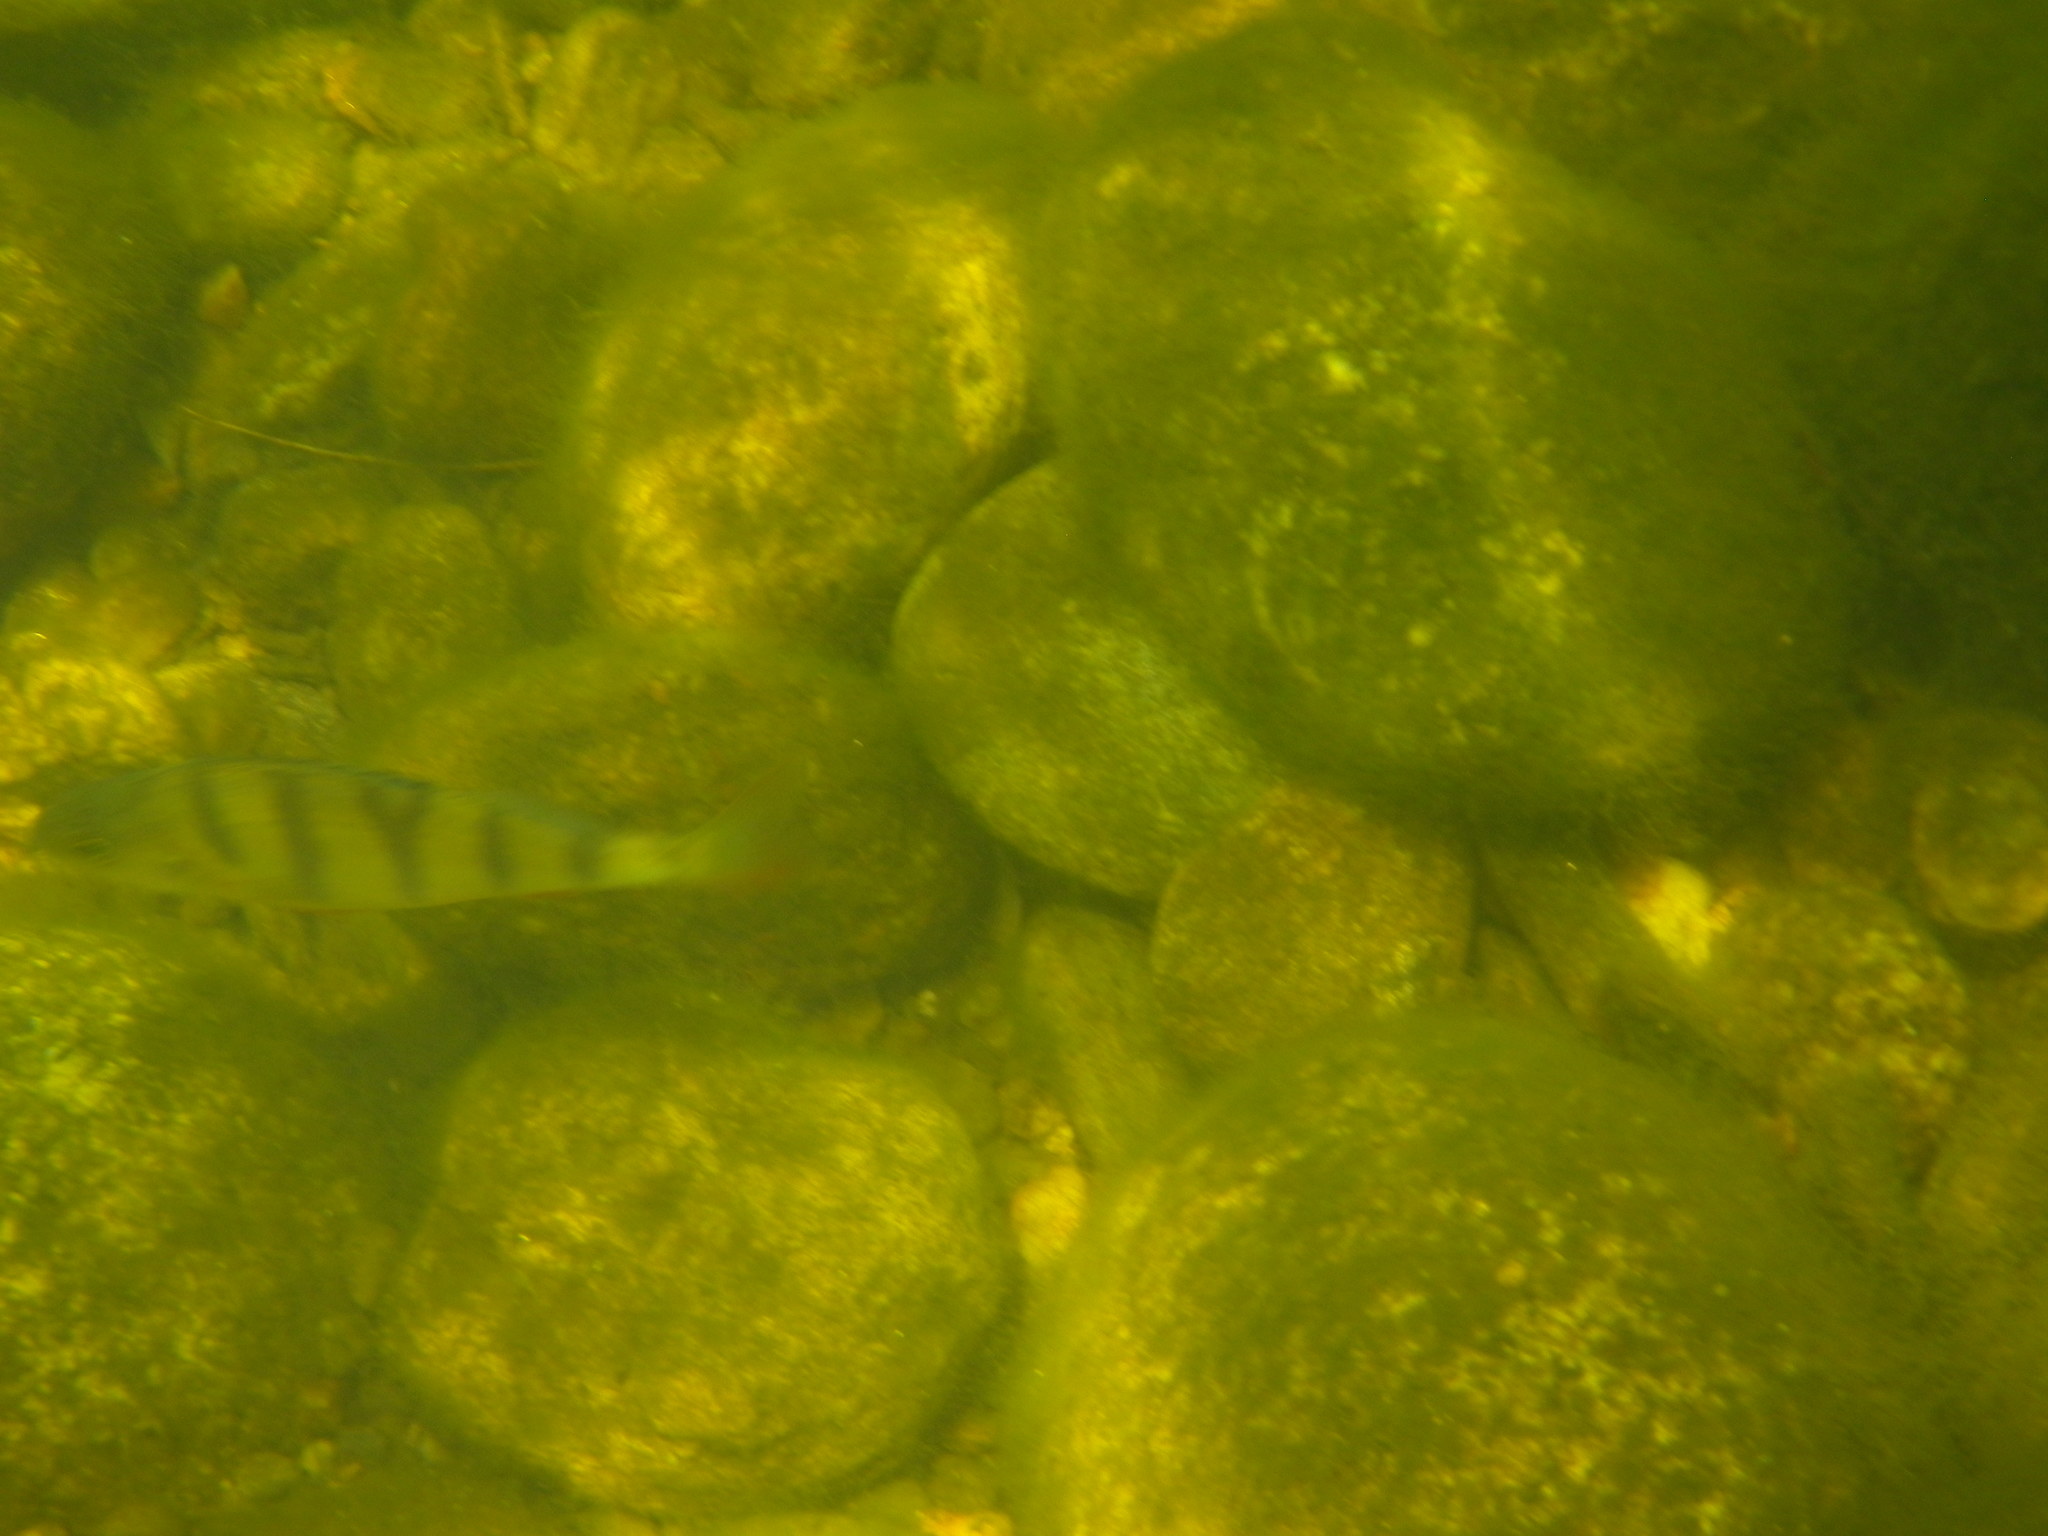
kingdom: Animalia
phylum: Chordata
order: Perciformes
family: Percidae
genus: Perca
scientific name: Perca fluviatilis
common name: Perch
